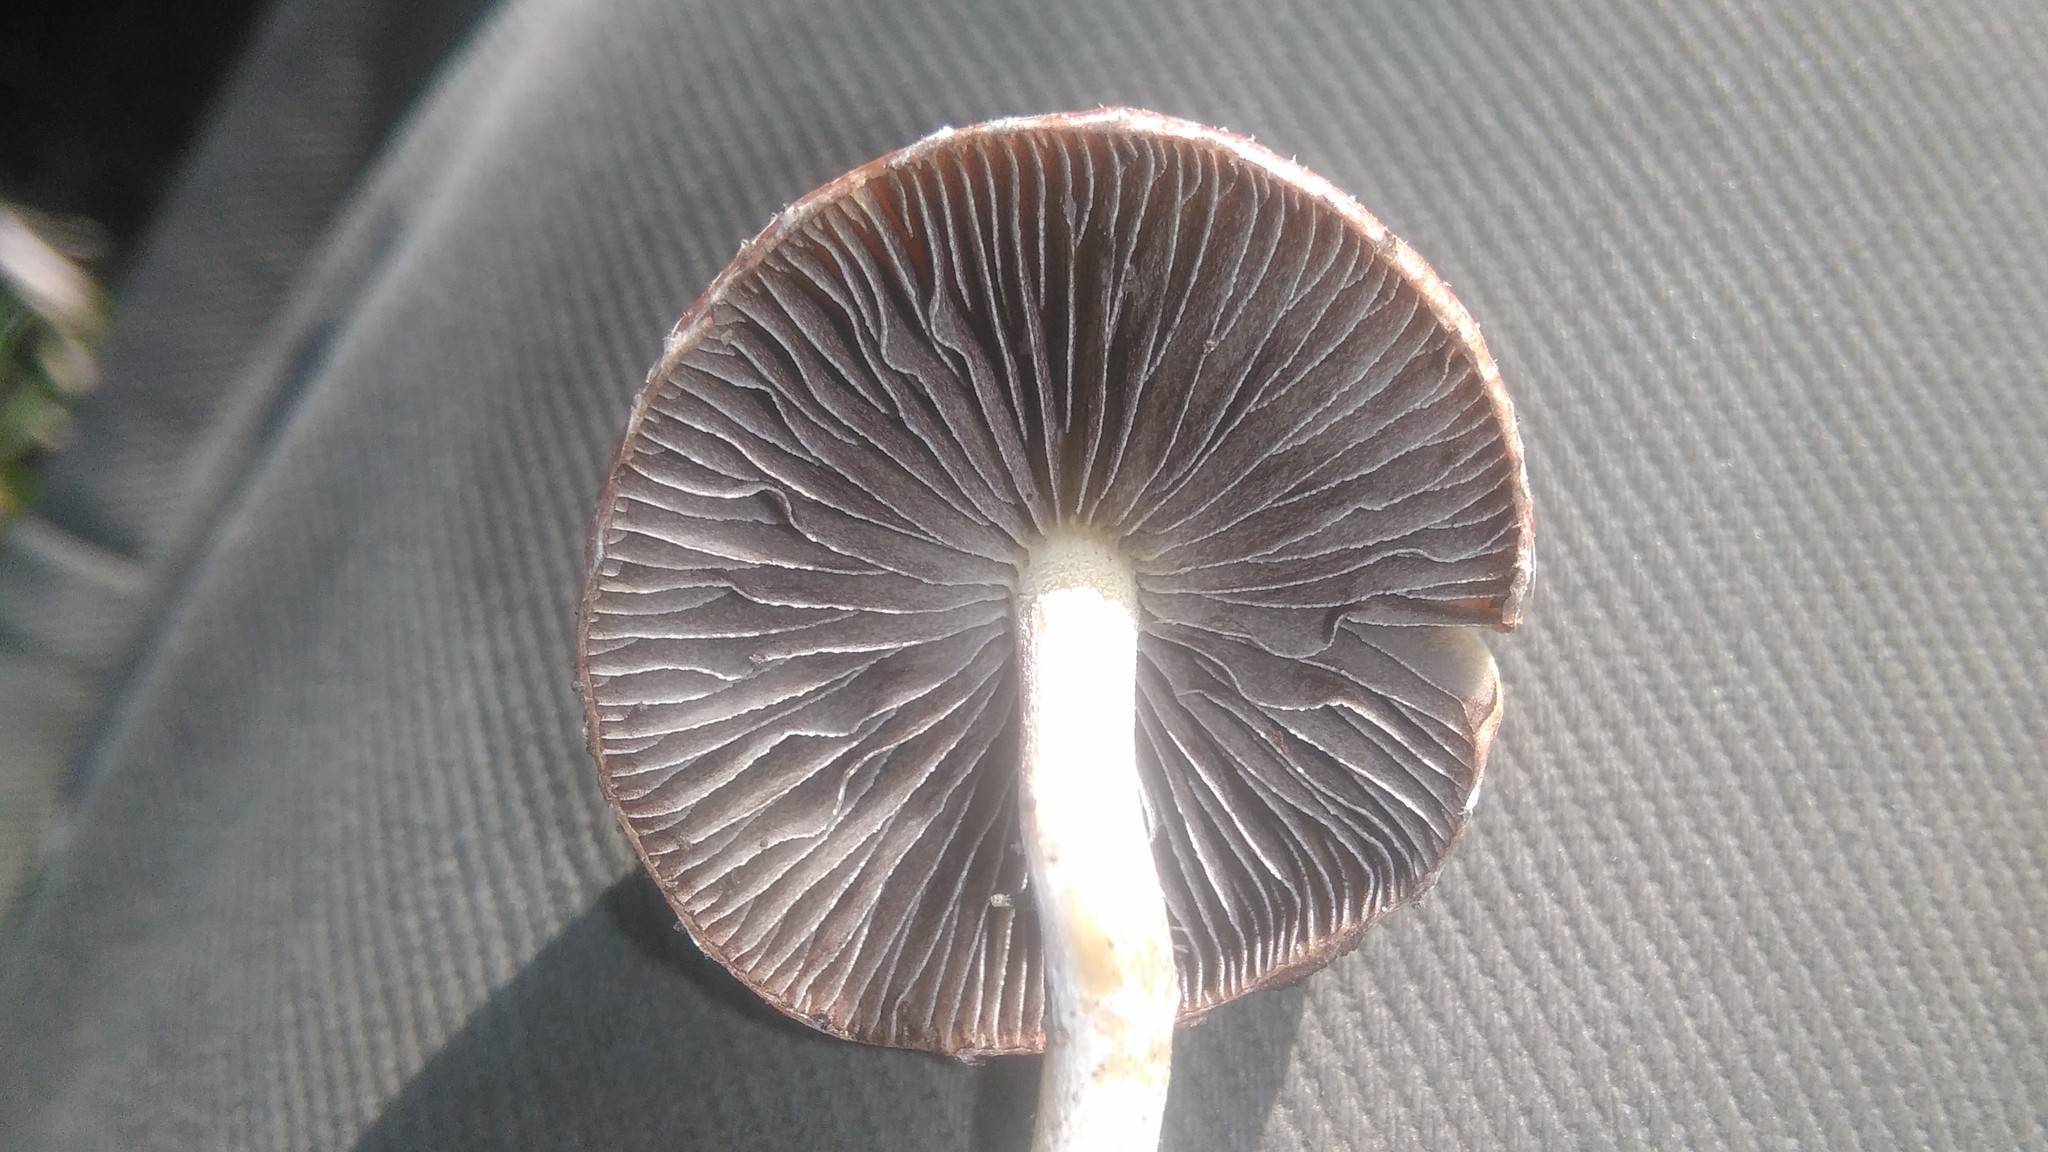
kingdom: Fungi
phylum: Basidiomycota
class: Agaricomycetes
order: Agaricales
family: Strophariaceae
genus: Leratiomyces
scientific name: Leratiomyces ceres
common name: Redlead roundhead
